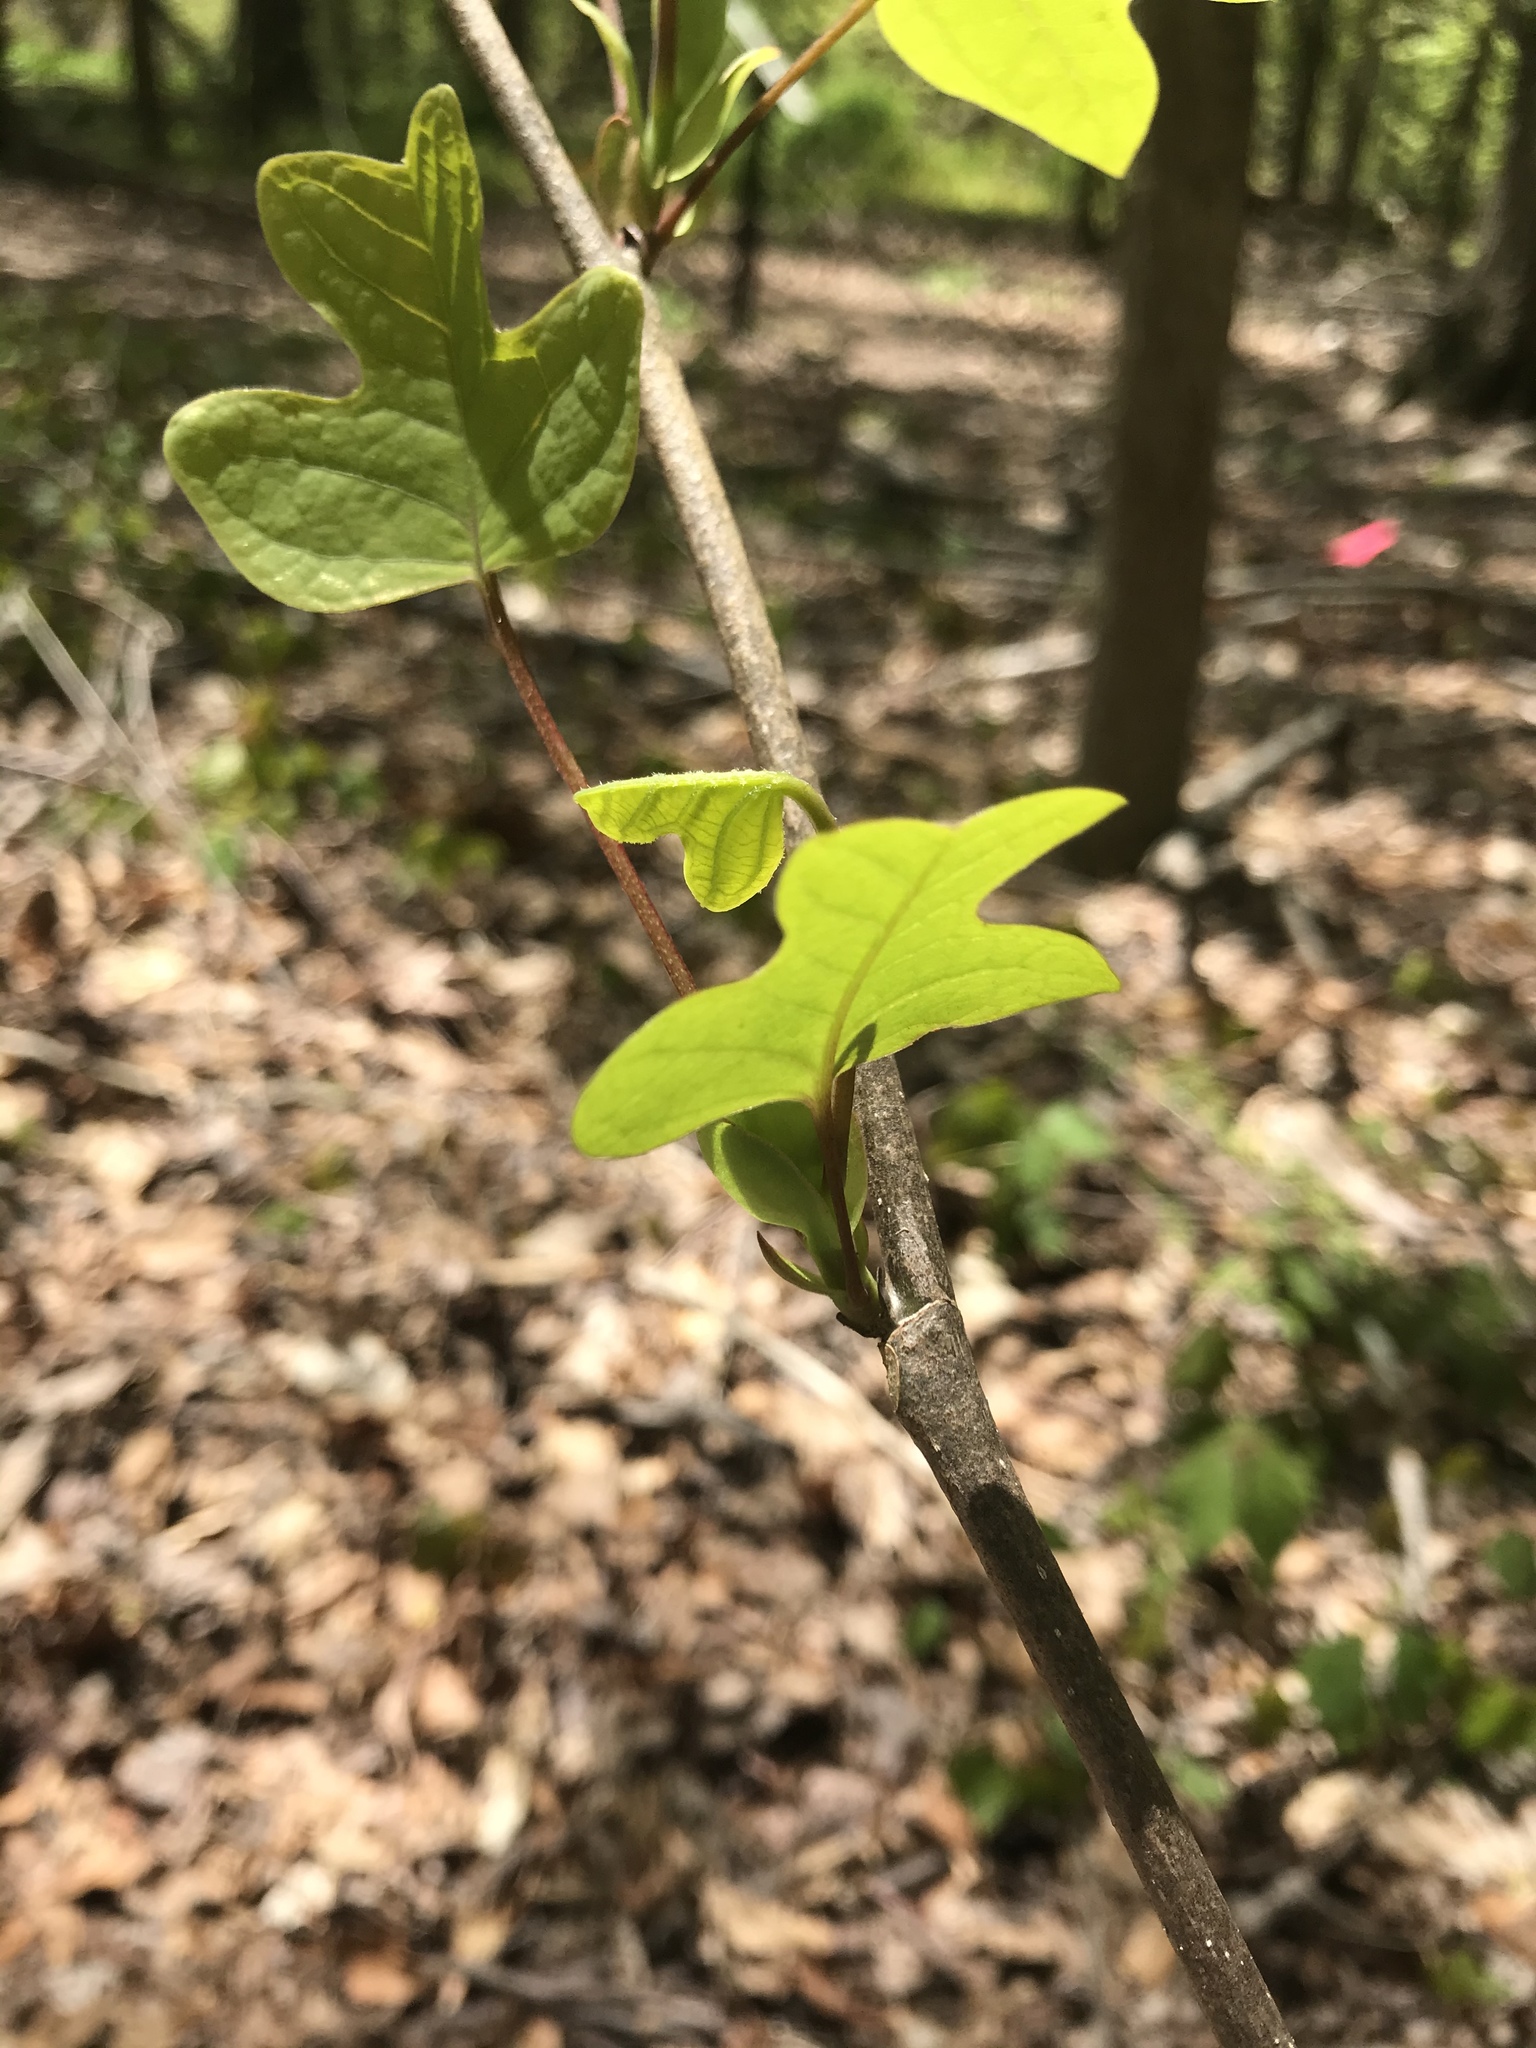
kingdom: Plantae
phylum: Tracheophyta
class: Magnoliopsida
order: Magnoliales
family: Magnoliaceae
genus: Liriodendron
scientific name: Liriodendron tulipifera
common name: Tulip tree
